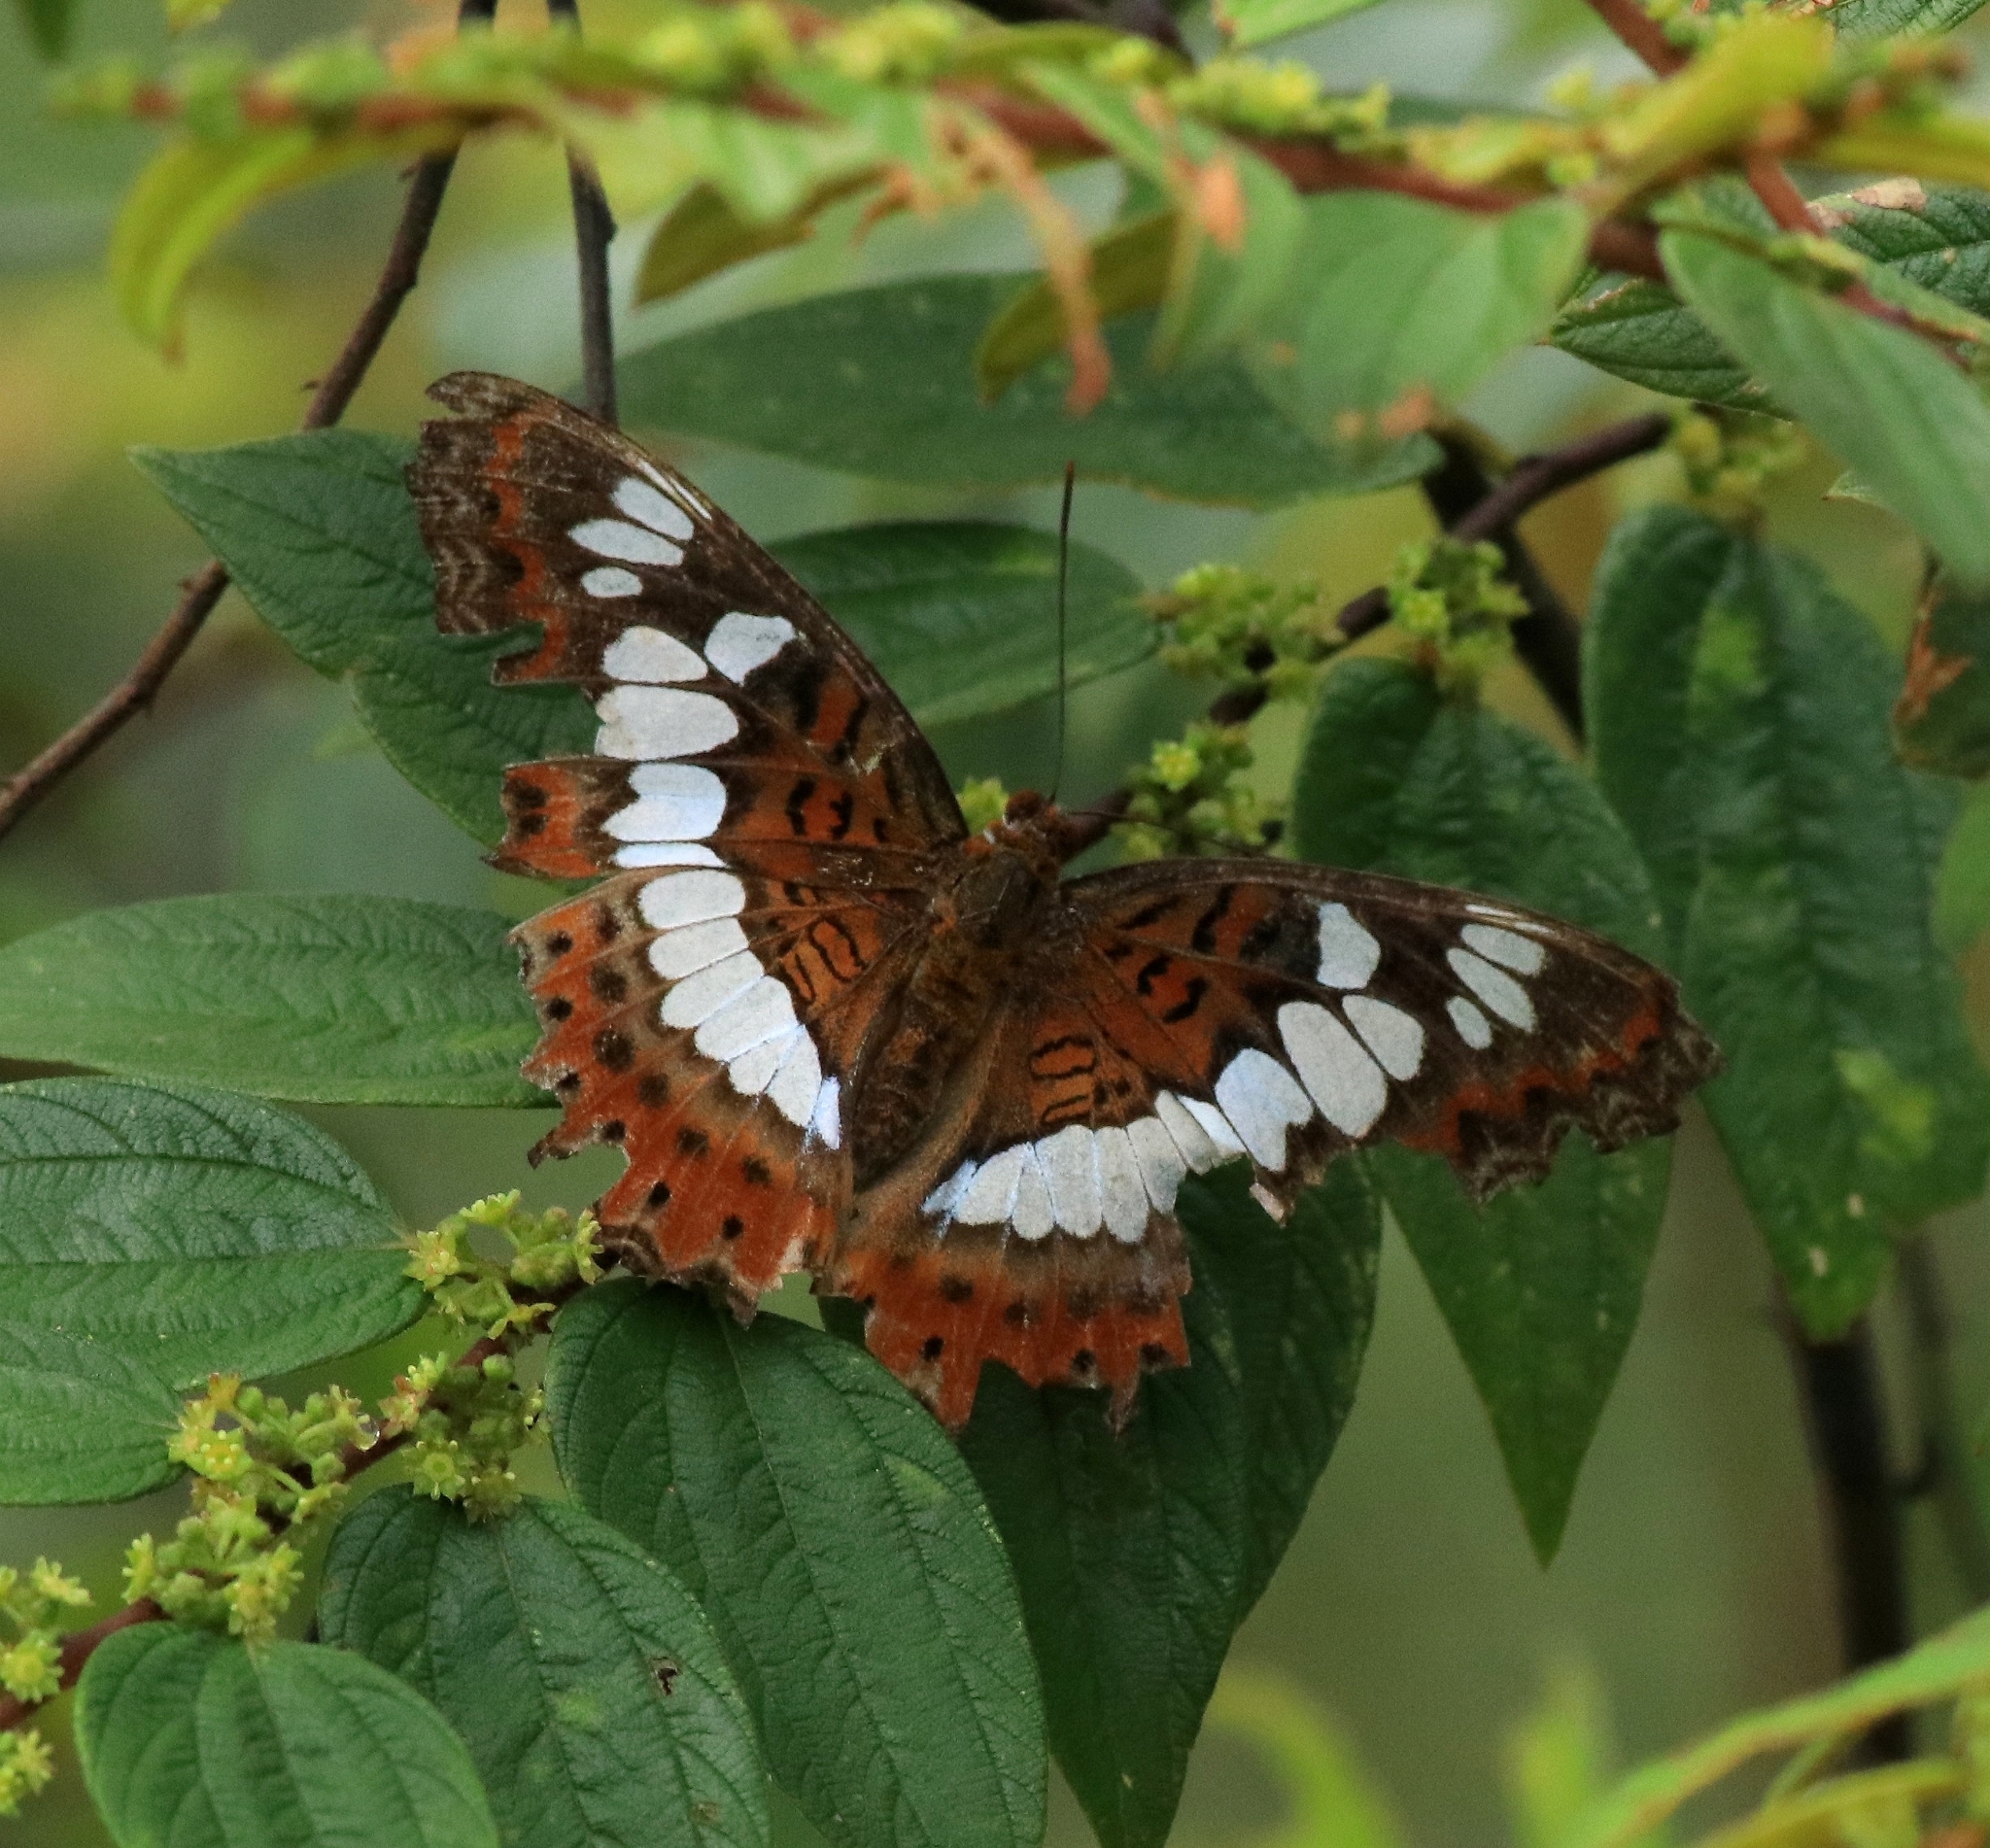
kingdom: Animalia
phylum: Arthropoda
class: Insecta
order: Lepidoptera
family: Nymphalidae
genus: Limenitis
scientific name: Limenitis Moduza procris
